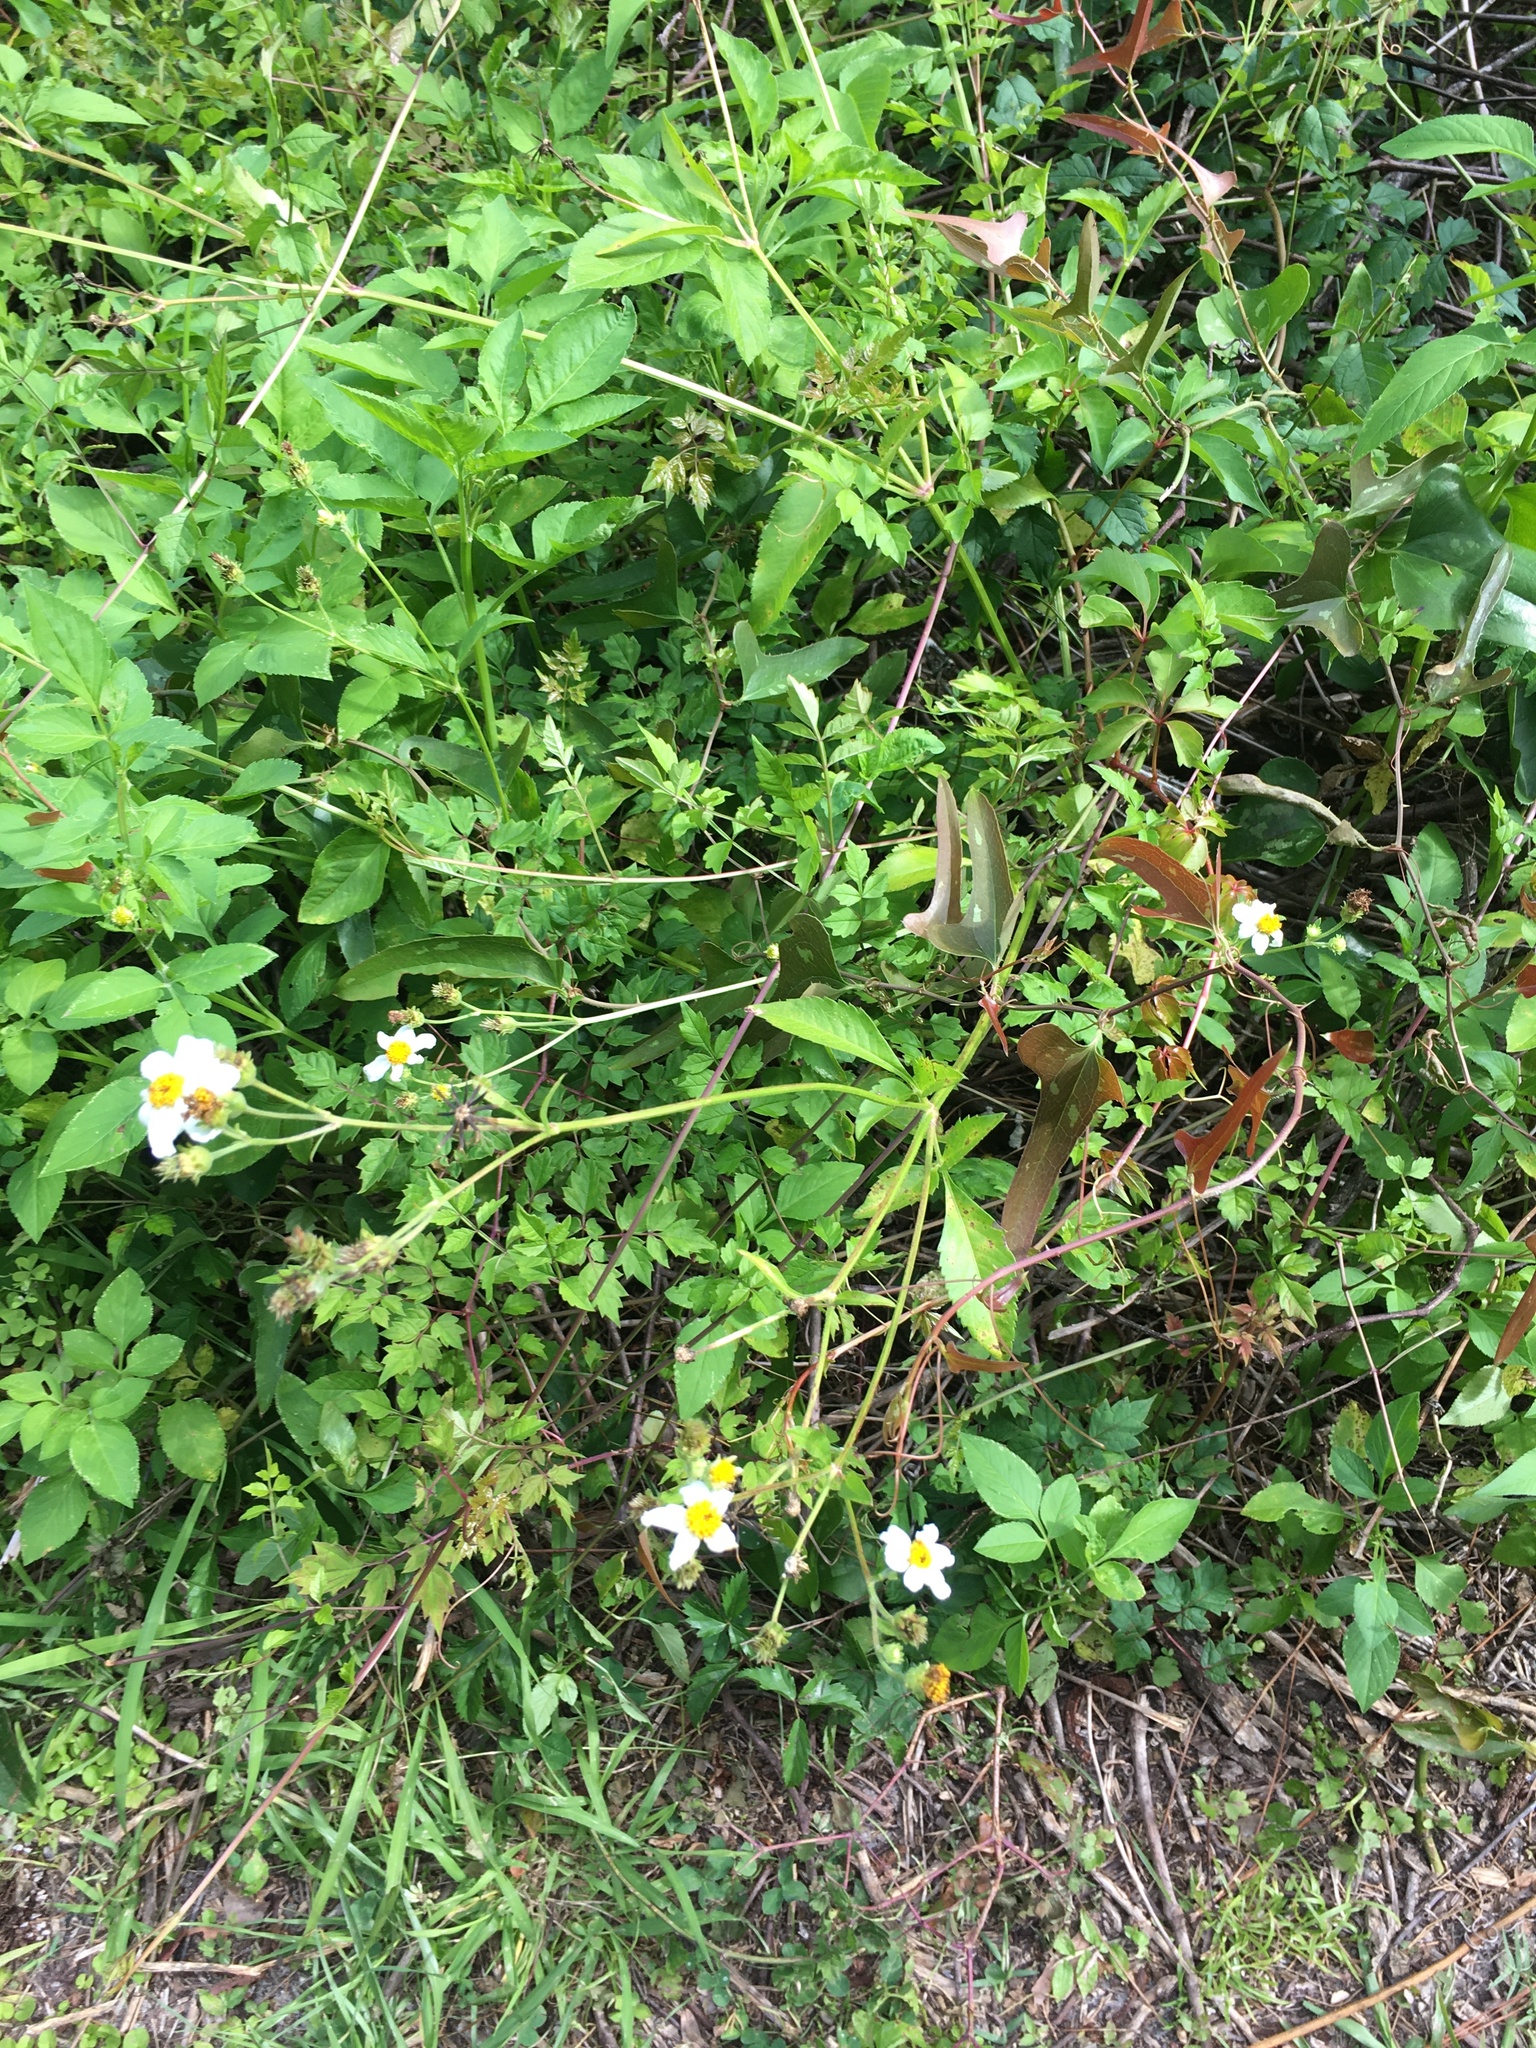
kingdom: Plantae
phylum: Tracheophyta
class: Magnoliopsida
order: Asterales
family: Asteraceae
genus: Bidens
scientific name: Bidens alba
